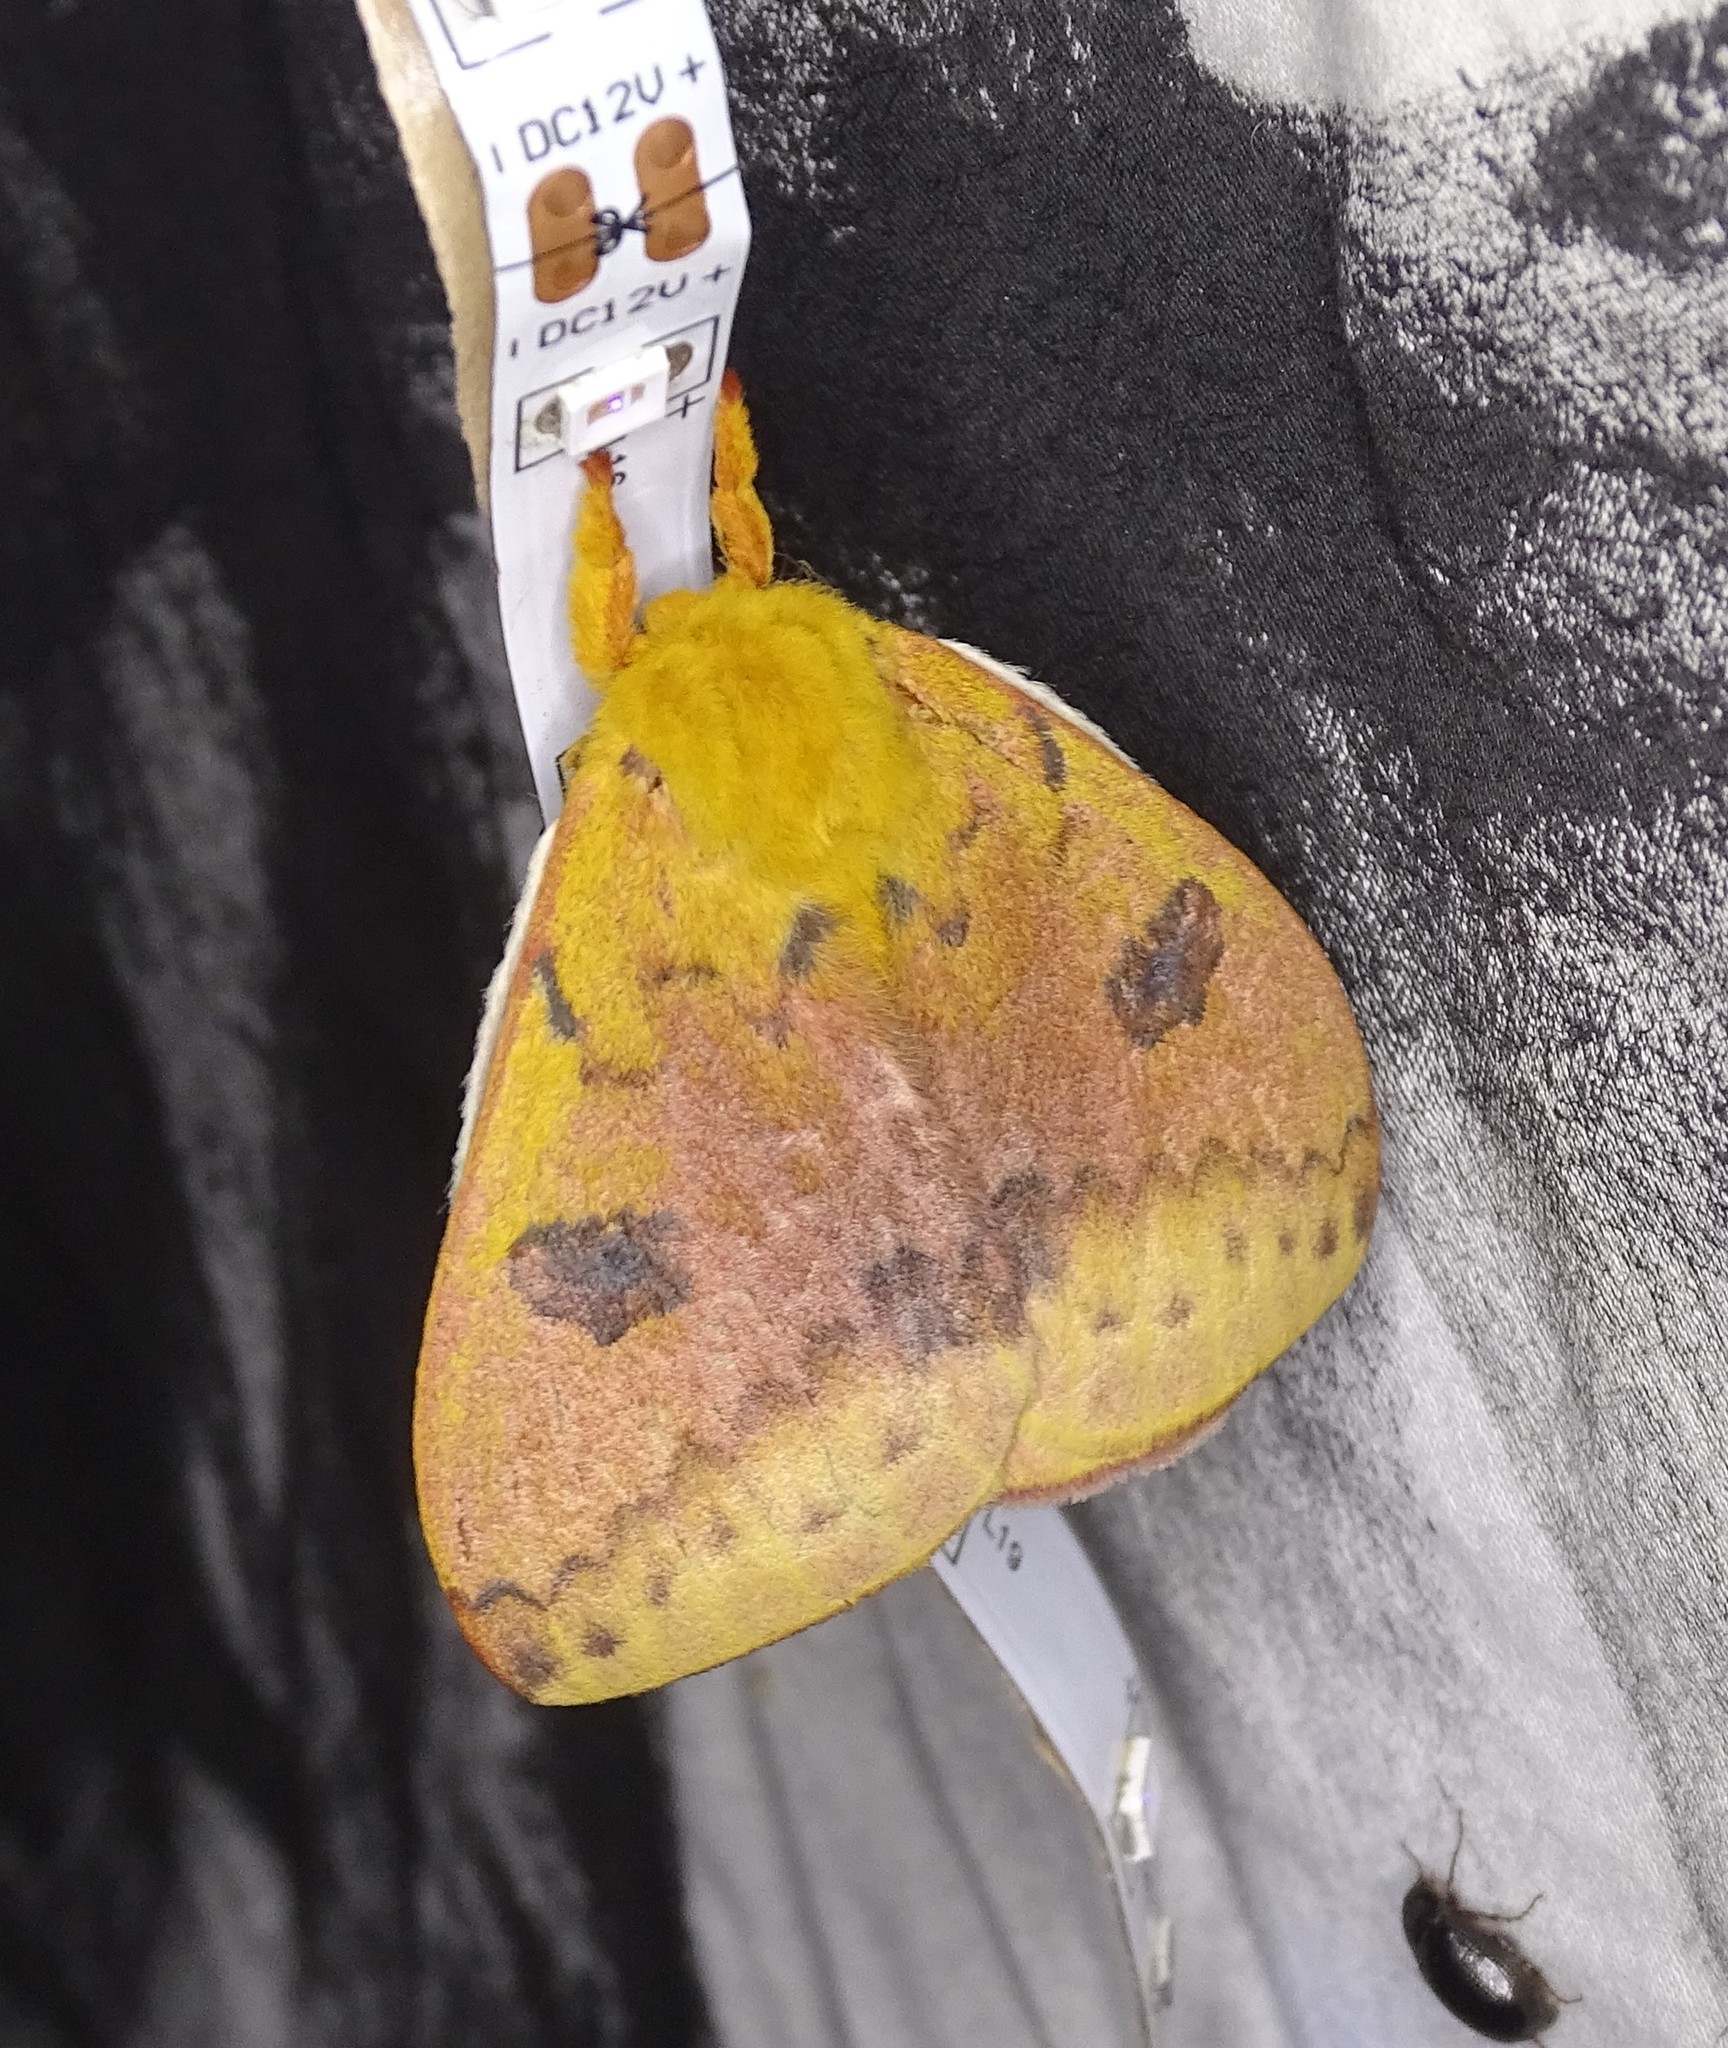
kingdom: Animalia
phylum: Arthropoda
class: Insecta
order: Lepidoptera
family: Saturniidae
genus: Automeris
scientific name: Automeris io
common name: Io moth
